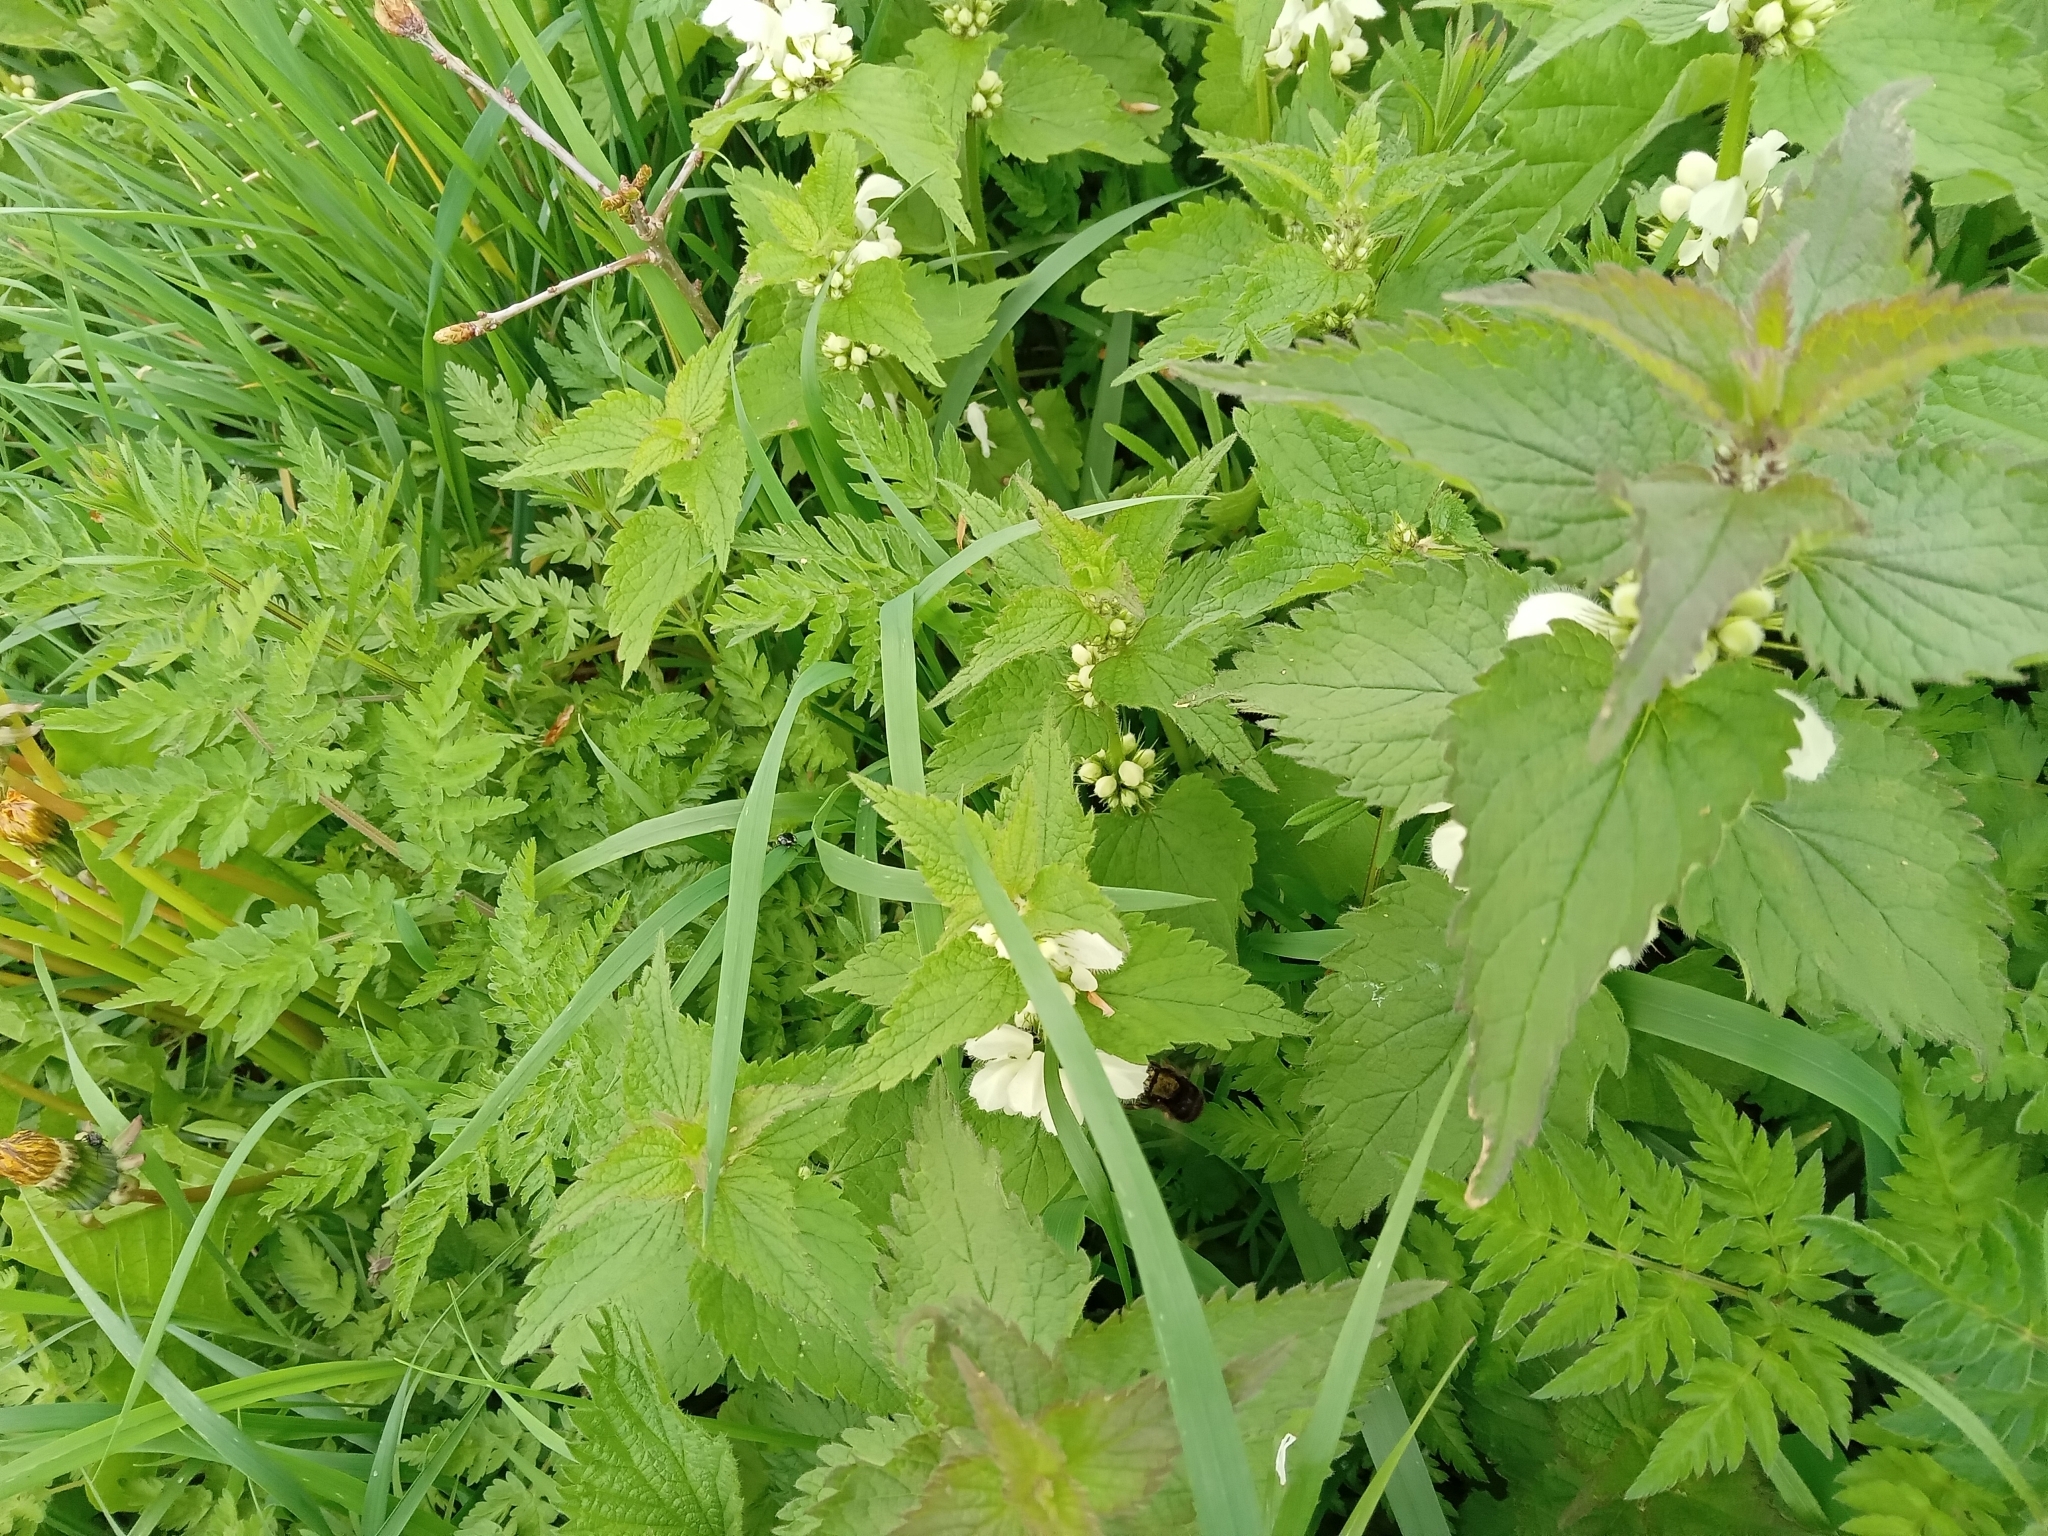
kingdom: Plantae
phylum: Tracheophyta
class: Magnoliopsida
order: Lamiales
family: Lamiaceae
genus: Lamium
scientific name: Lamium album
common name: White dead-nettle
